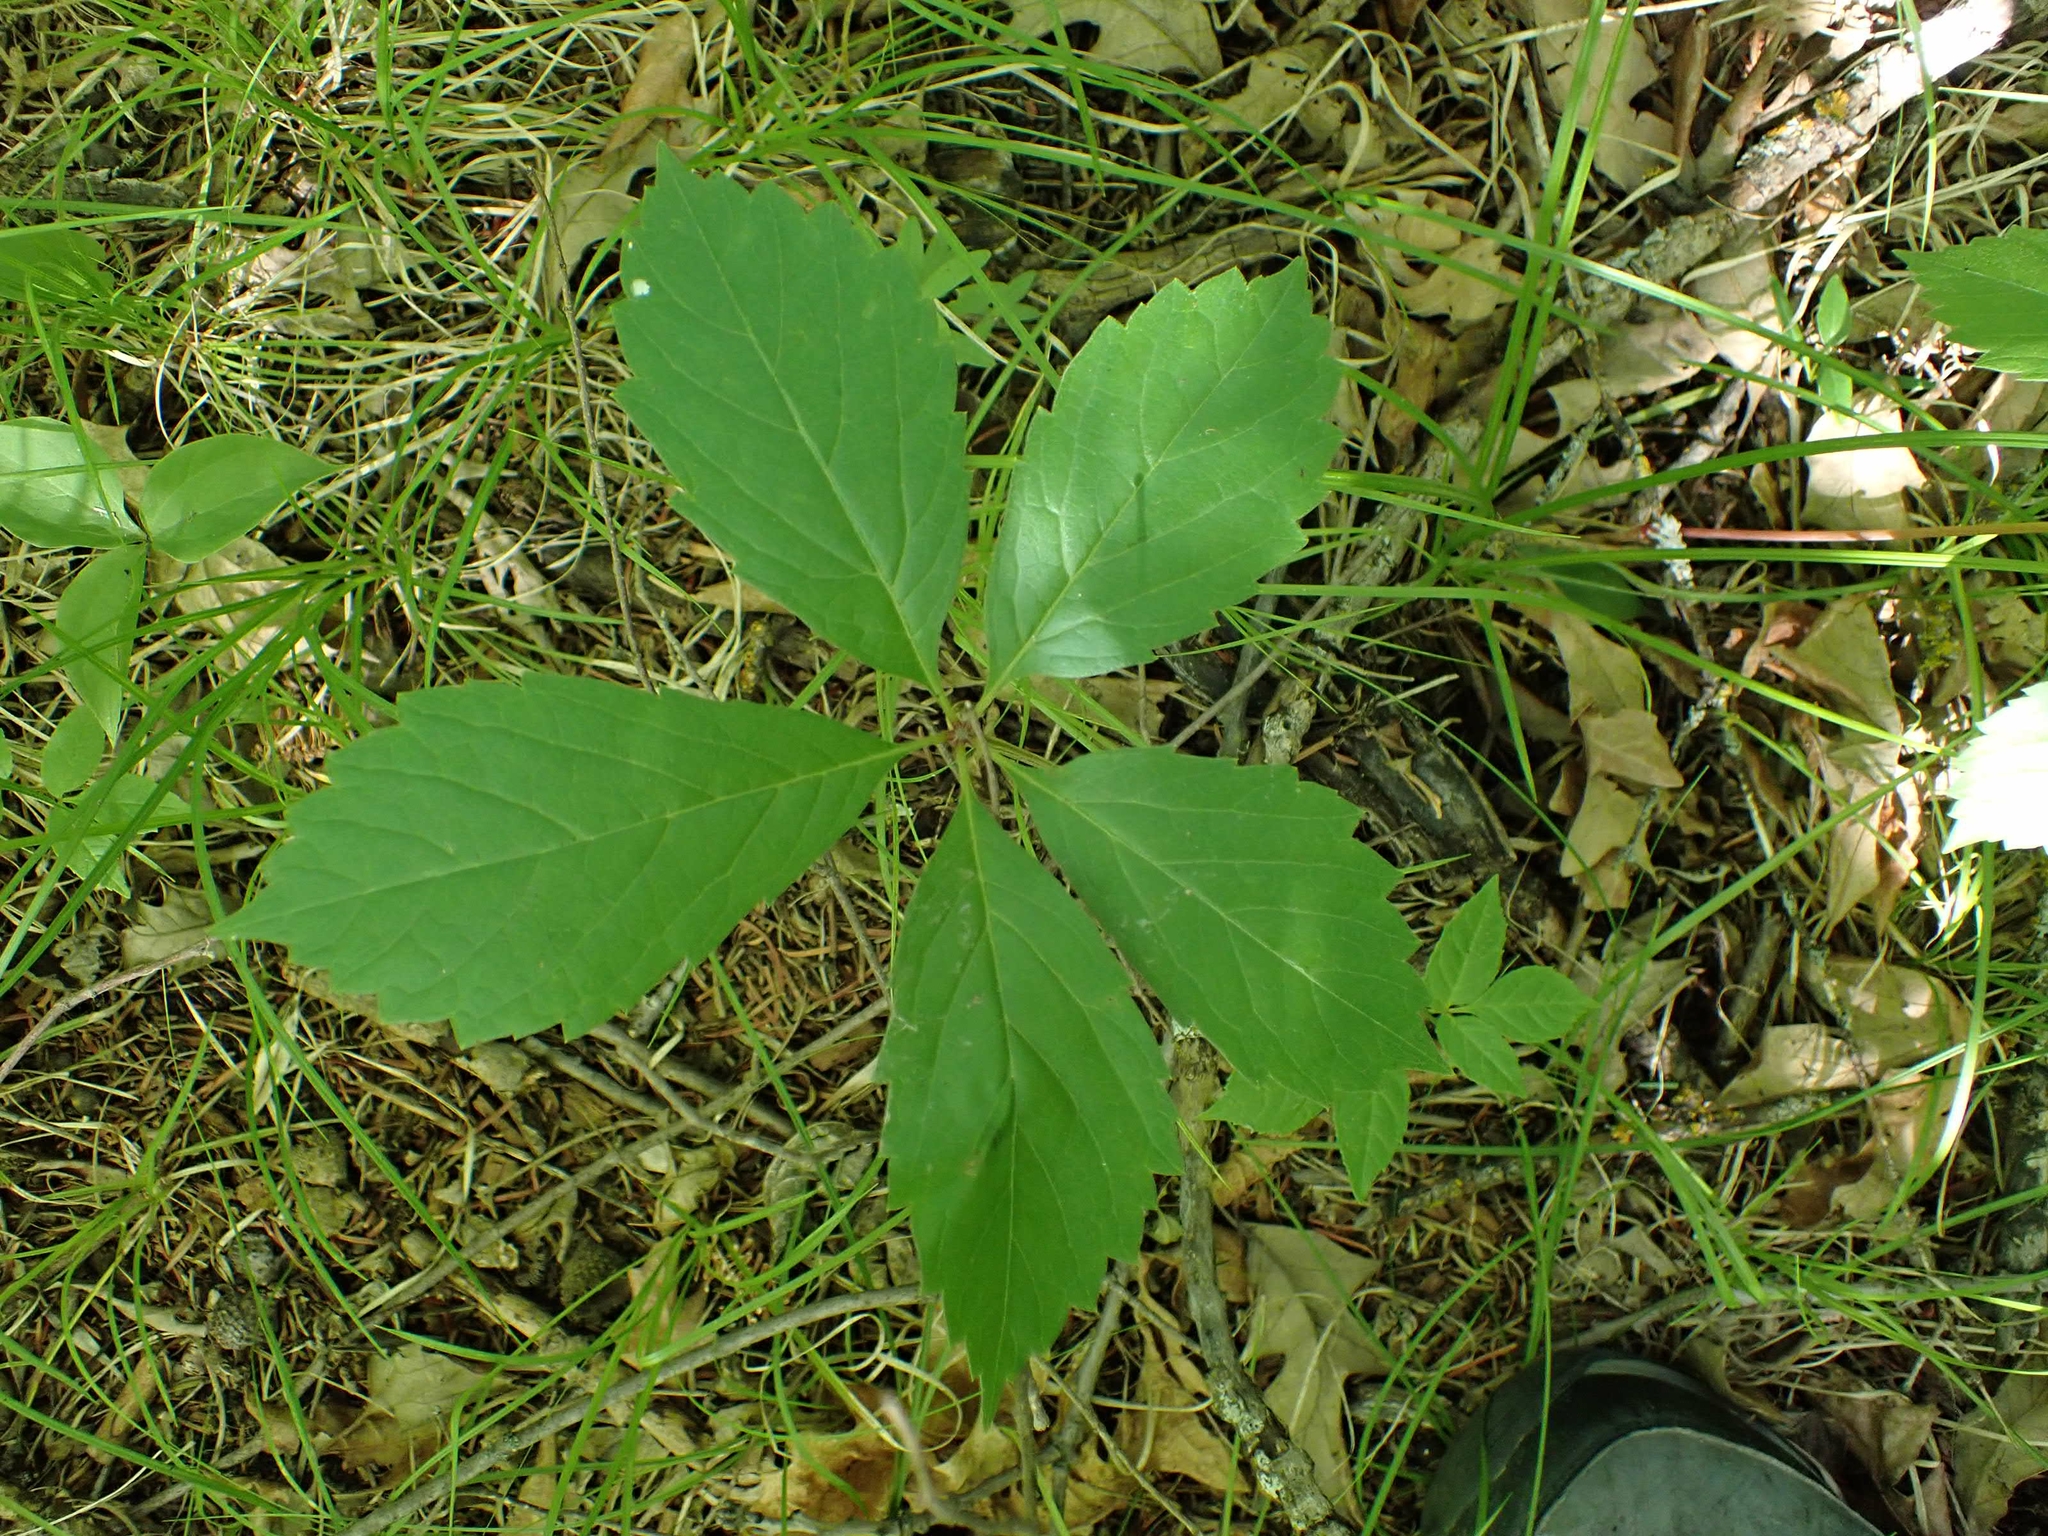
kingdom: Plantae
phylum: Tracheophyta
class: Magnoliopsida
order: Vitales
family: Vitaceae
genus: Parthenocissus
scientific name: Parthenocissus inserta
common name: False virginia-creeper
